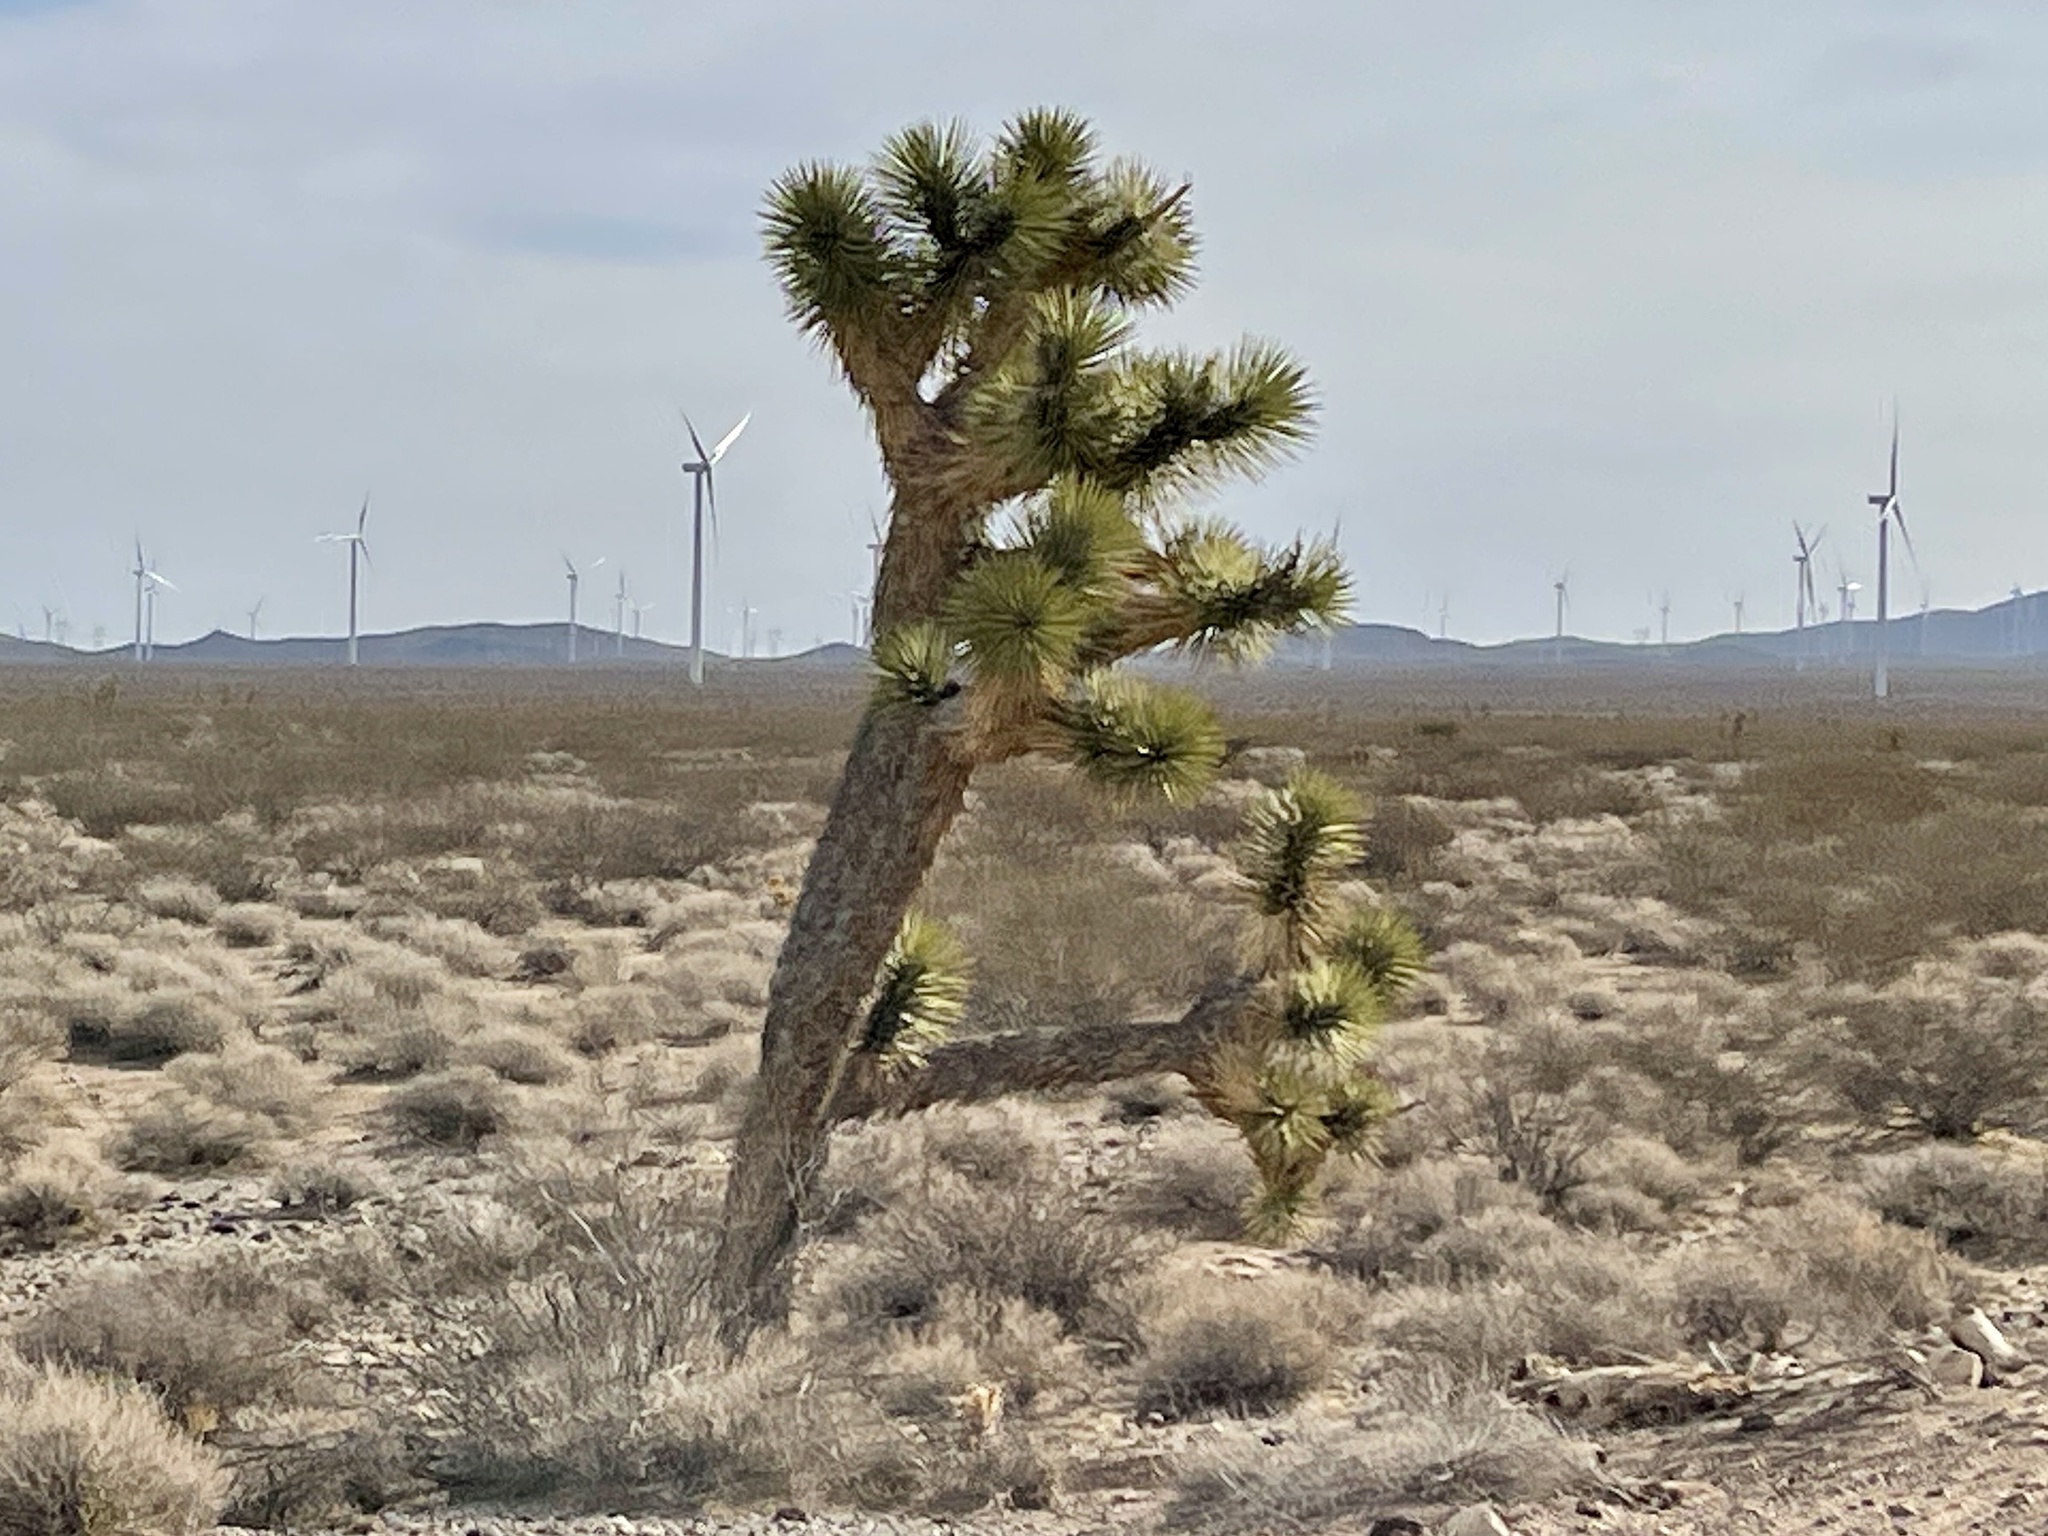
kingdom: Plantae
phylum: Tracheophyta
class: Liliopsida
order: Asparagales
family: Asparagaceae
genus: Yucca
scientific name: Yucca brevifolia
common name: Joshua tree
